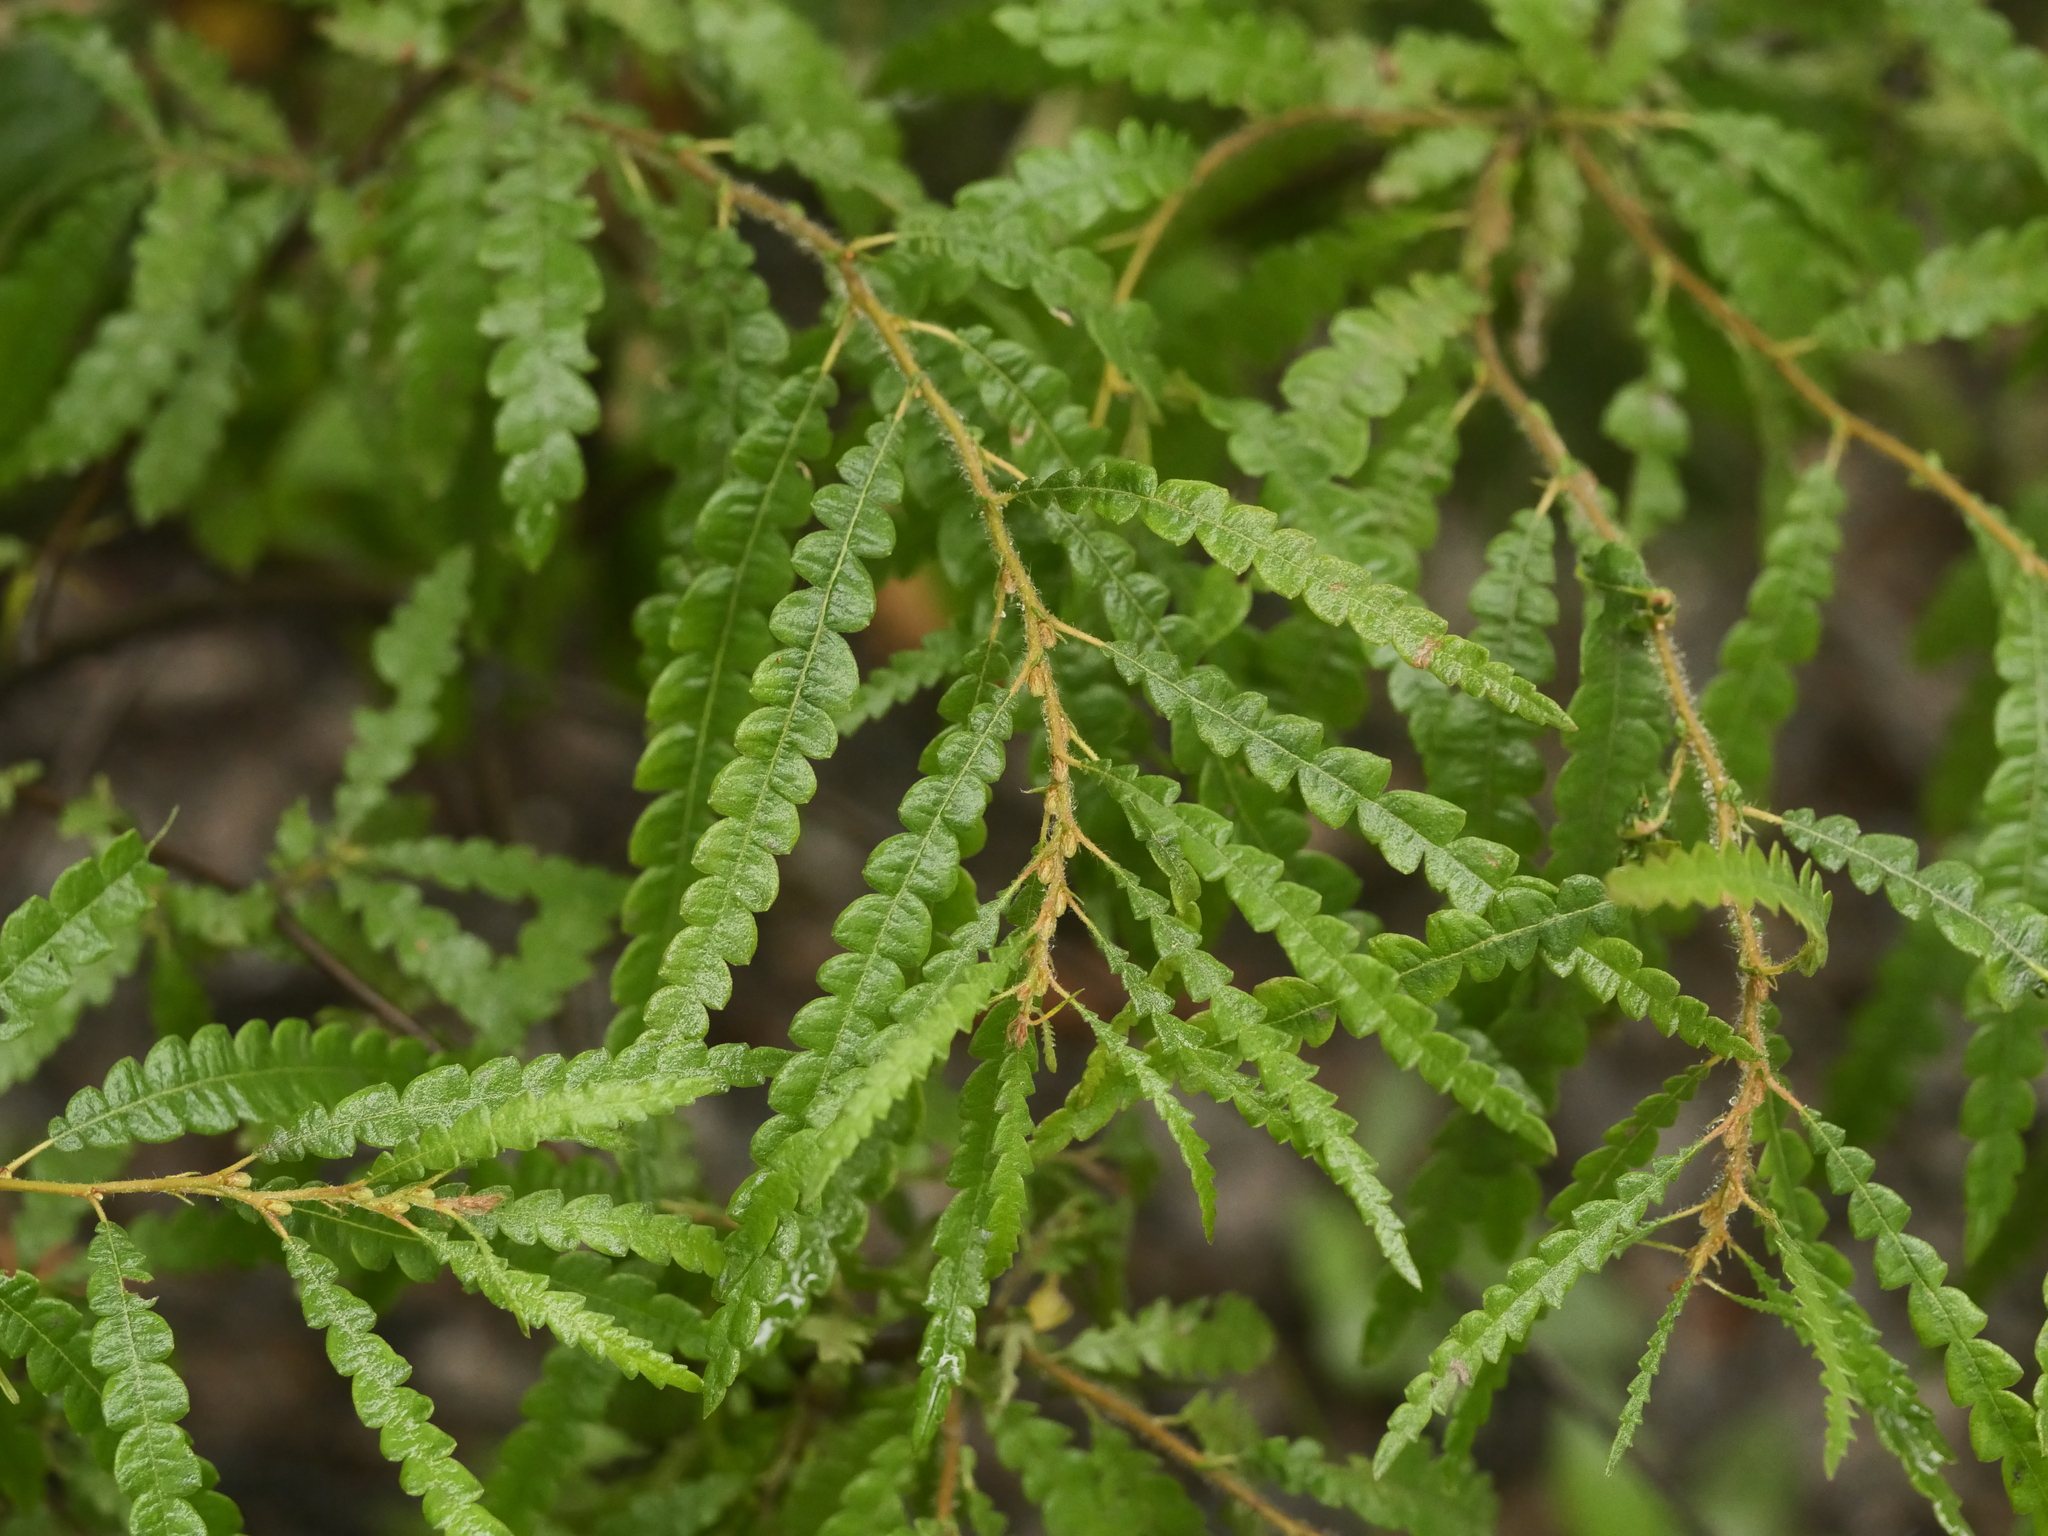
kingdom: Plantae
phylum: Tracheophyta
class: Magnoliopsida
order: Fagales
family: Myricaceae
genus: Comptonia
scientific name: Comptonia peregrina
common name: Sweet-fern
